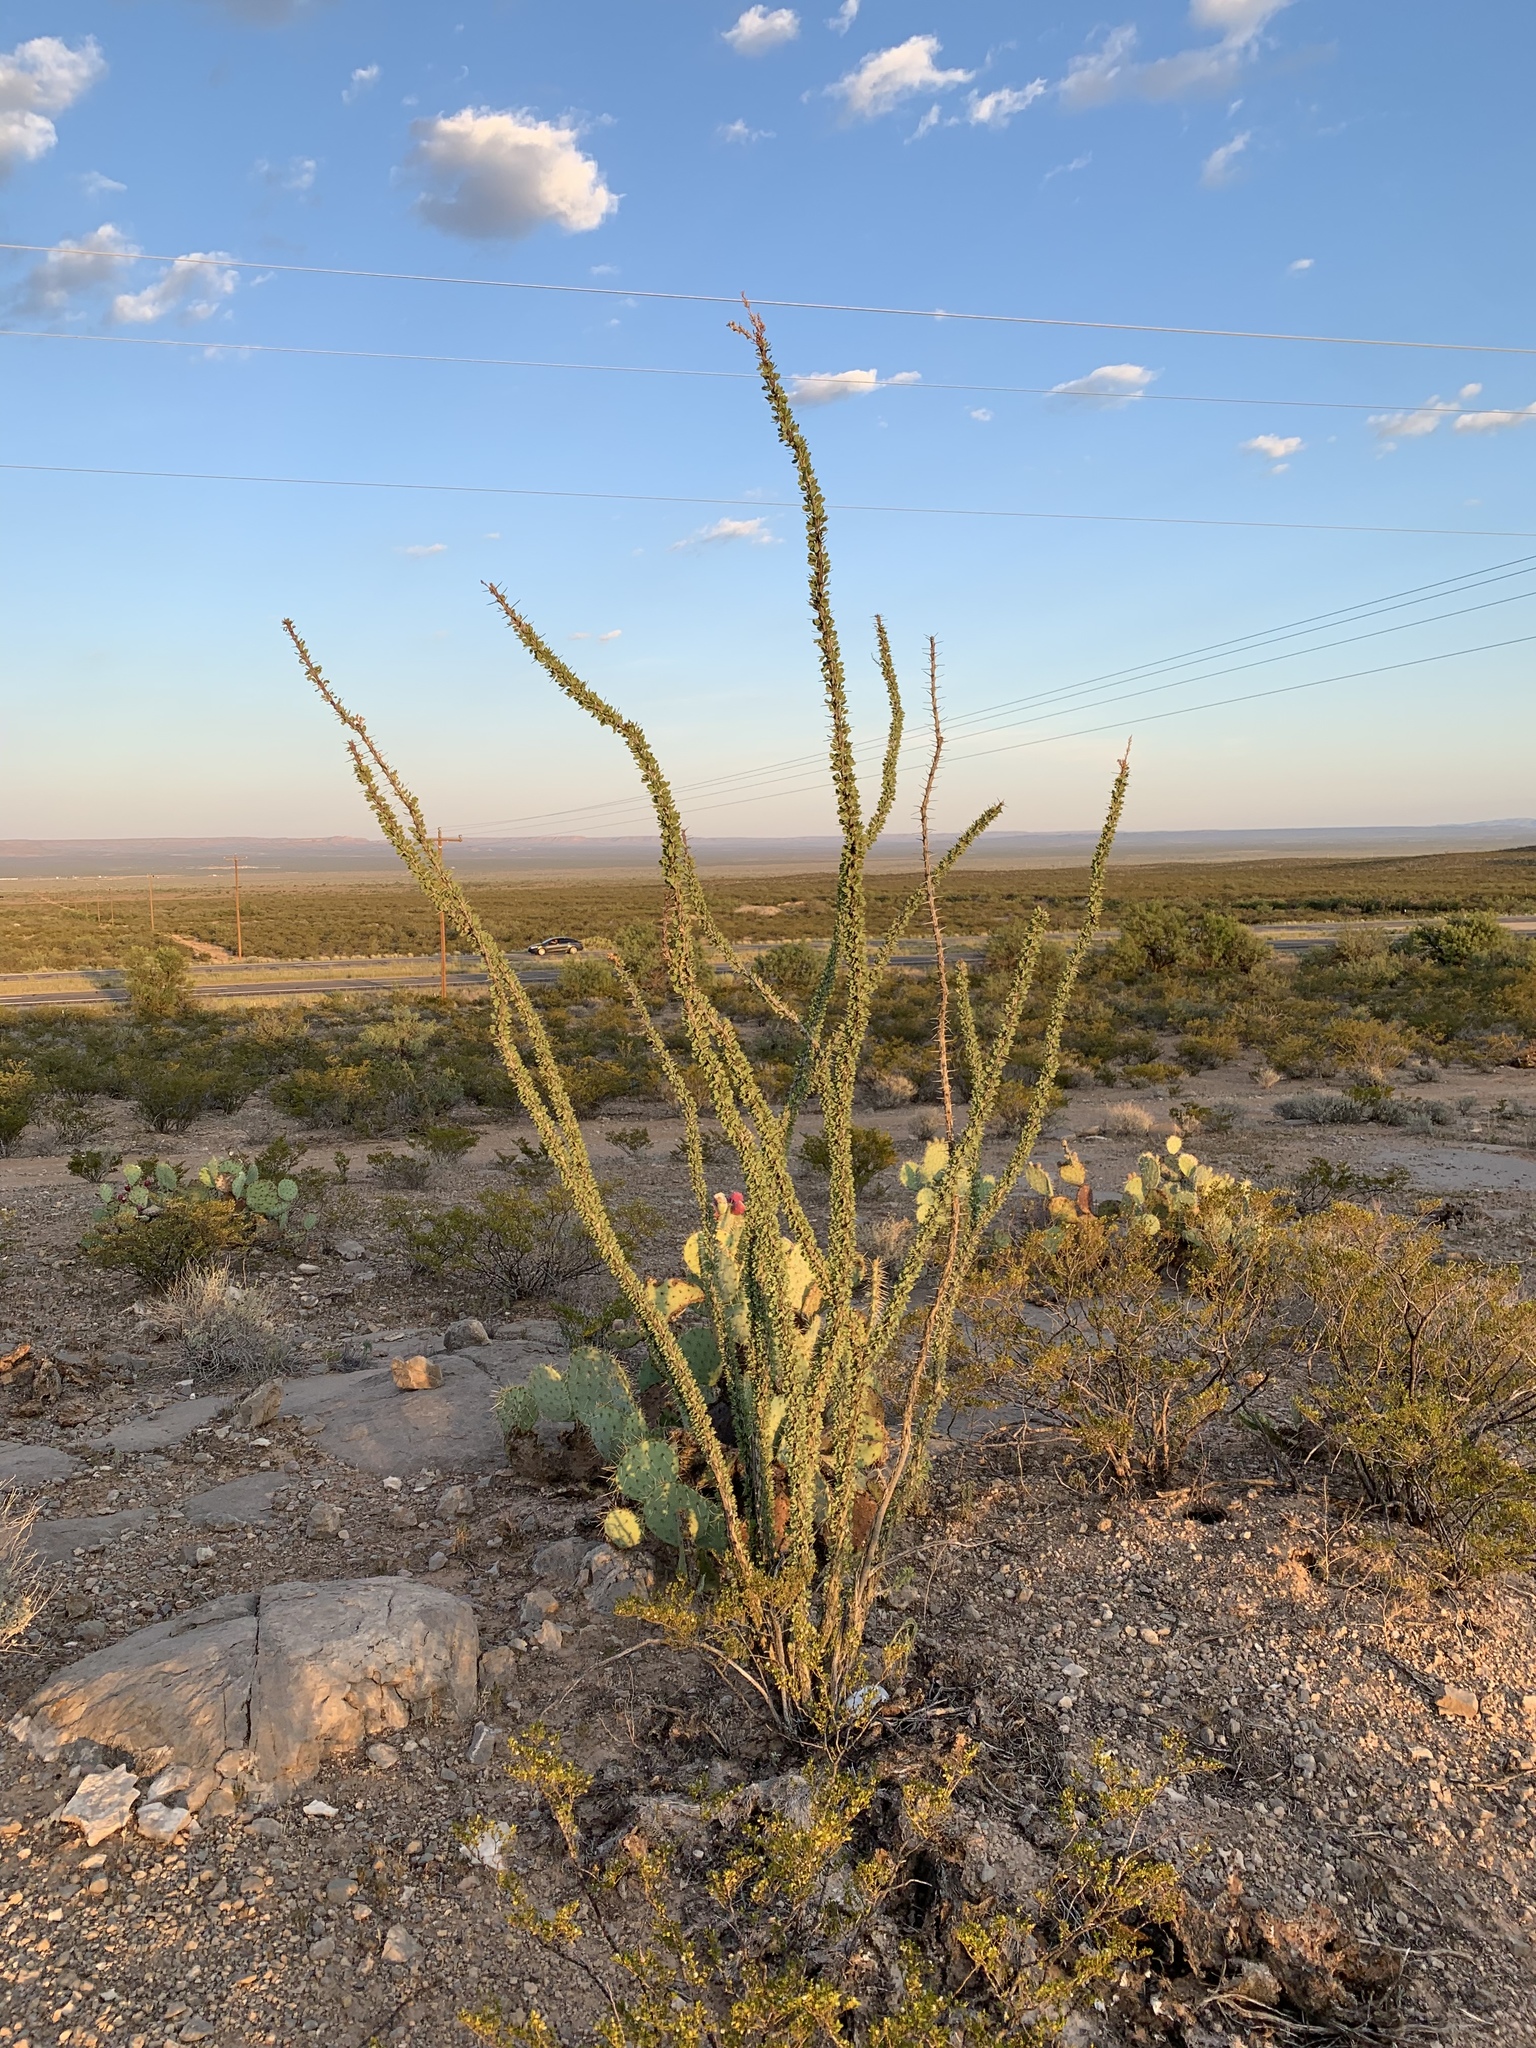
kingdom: Plantae
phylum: Tracheophyta
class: Magnoliopsida
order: Ericales
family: Fouquieriaceae
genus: Fouquieria
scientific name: Fouquieria splendens
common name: Vine-cactus
